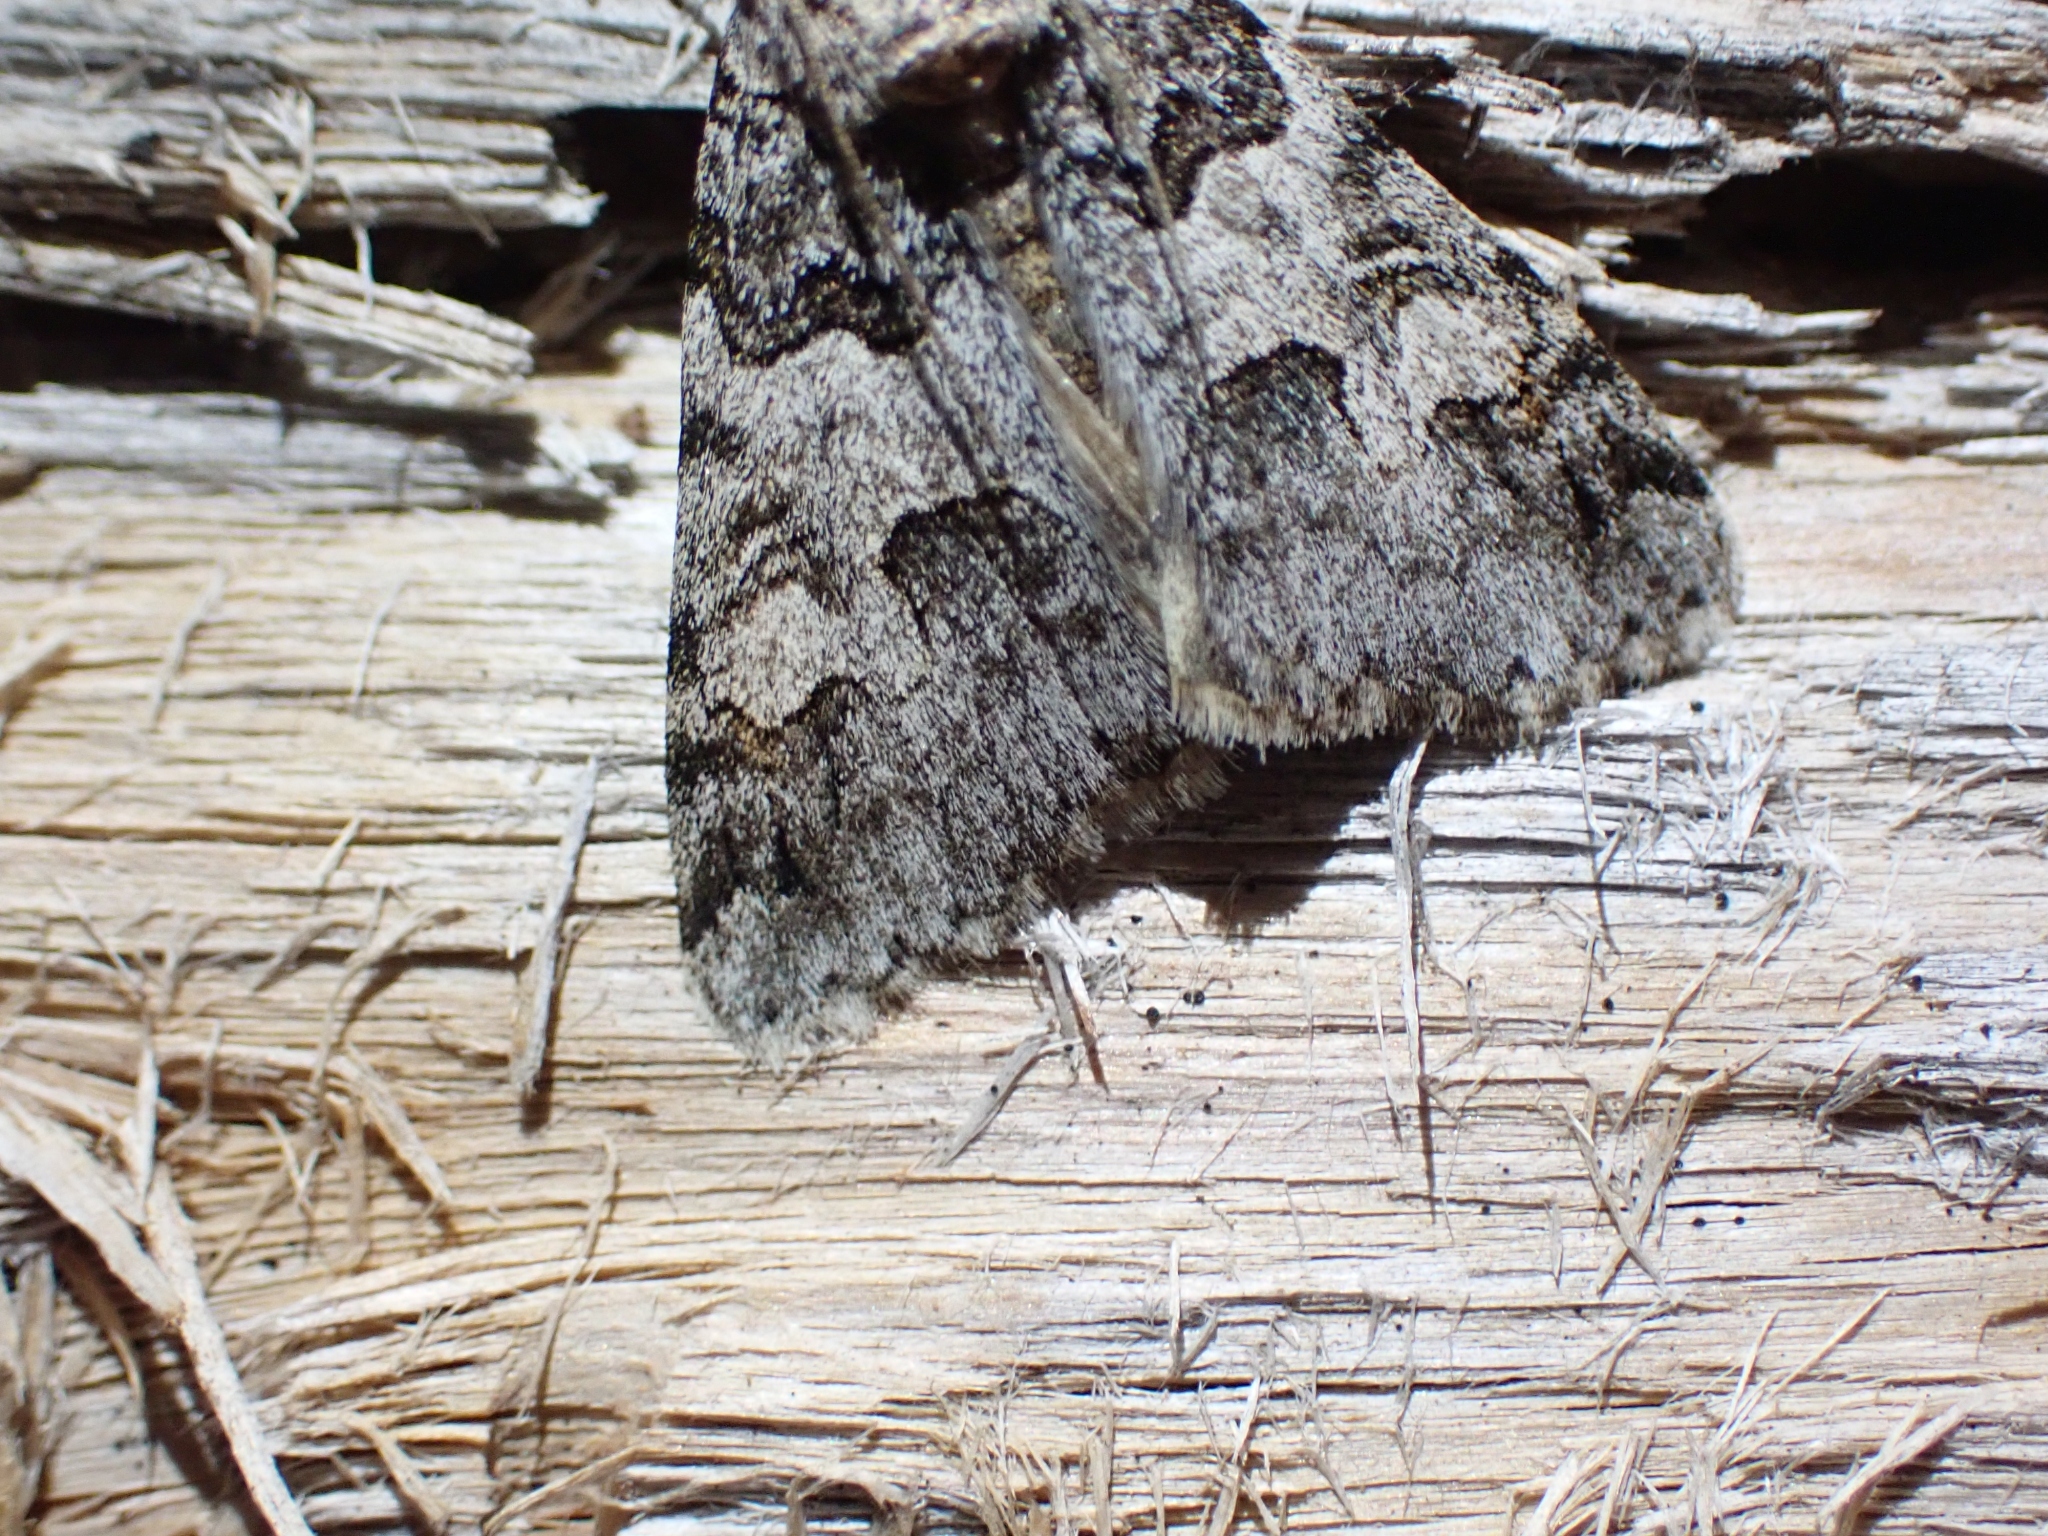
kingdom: Animalia
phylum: Arthropoda
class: Insecta
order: Lepidoptera
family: Erebidae
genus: Drasteria
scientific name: Drasteria sabulosa
